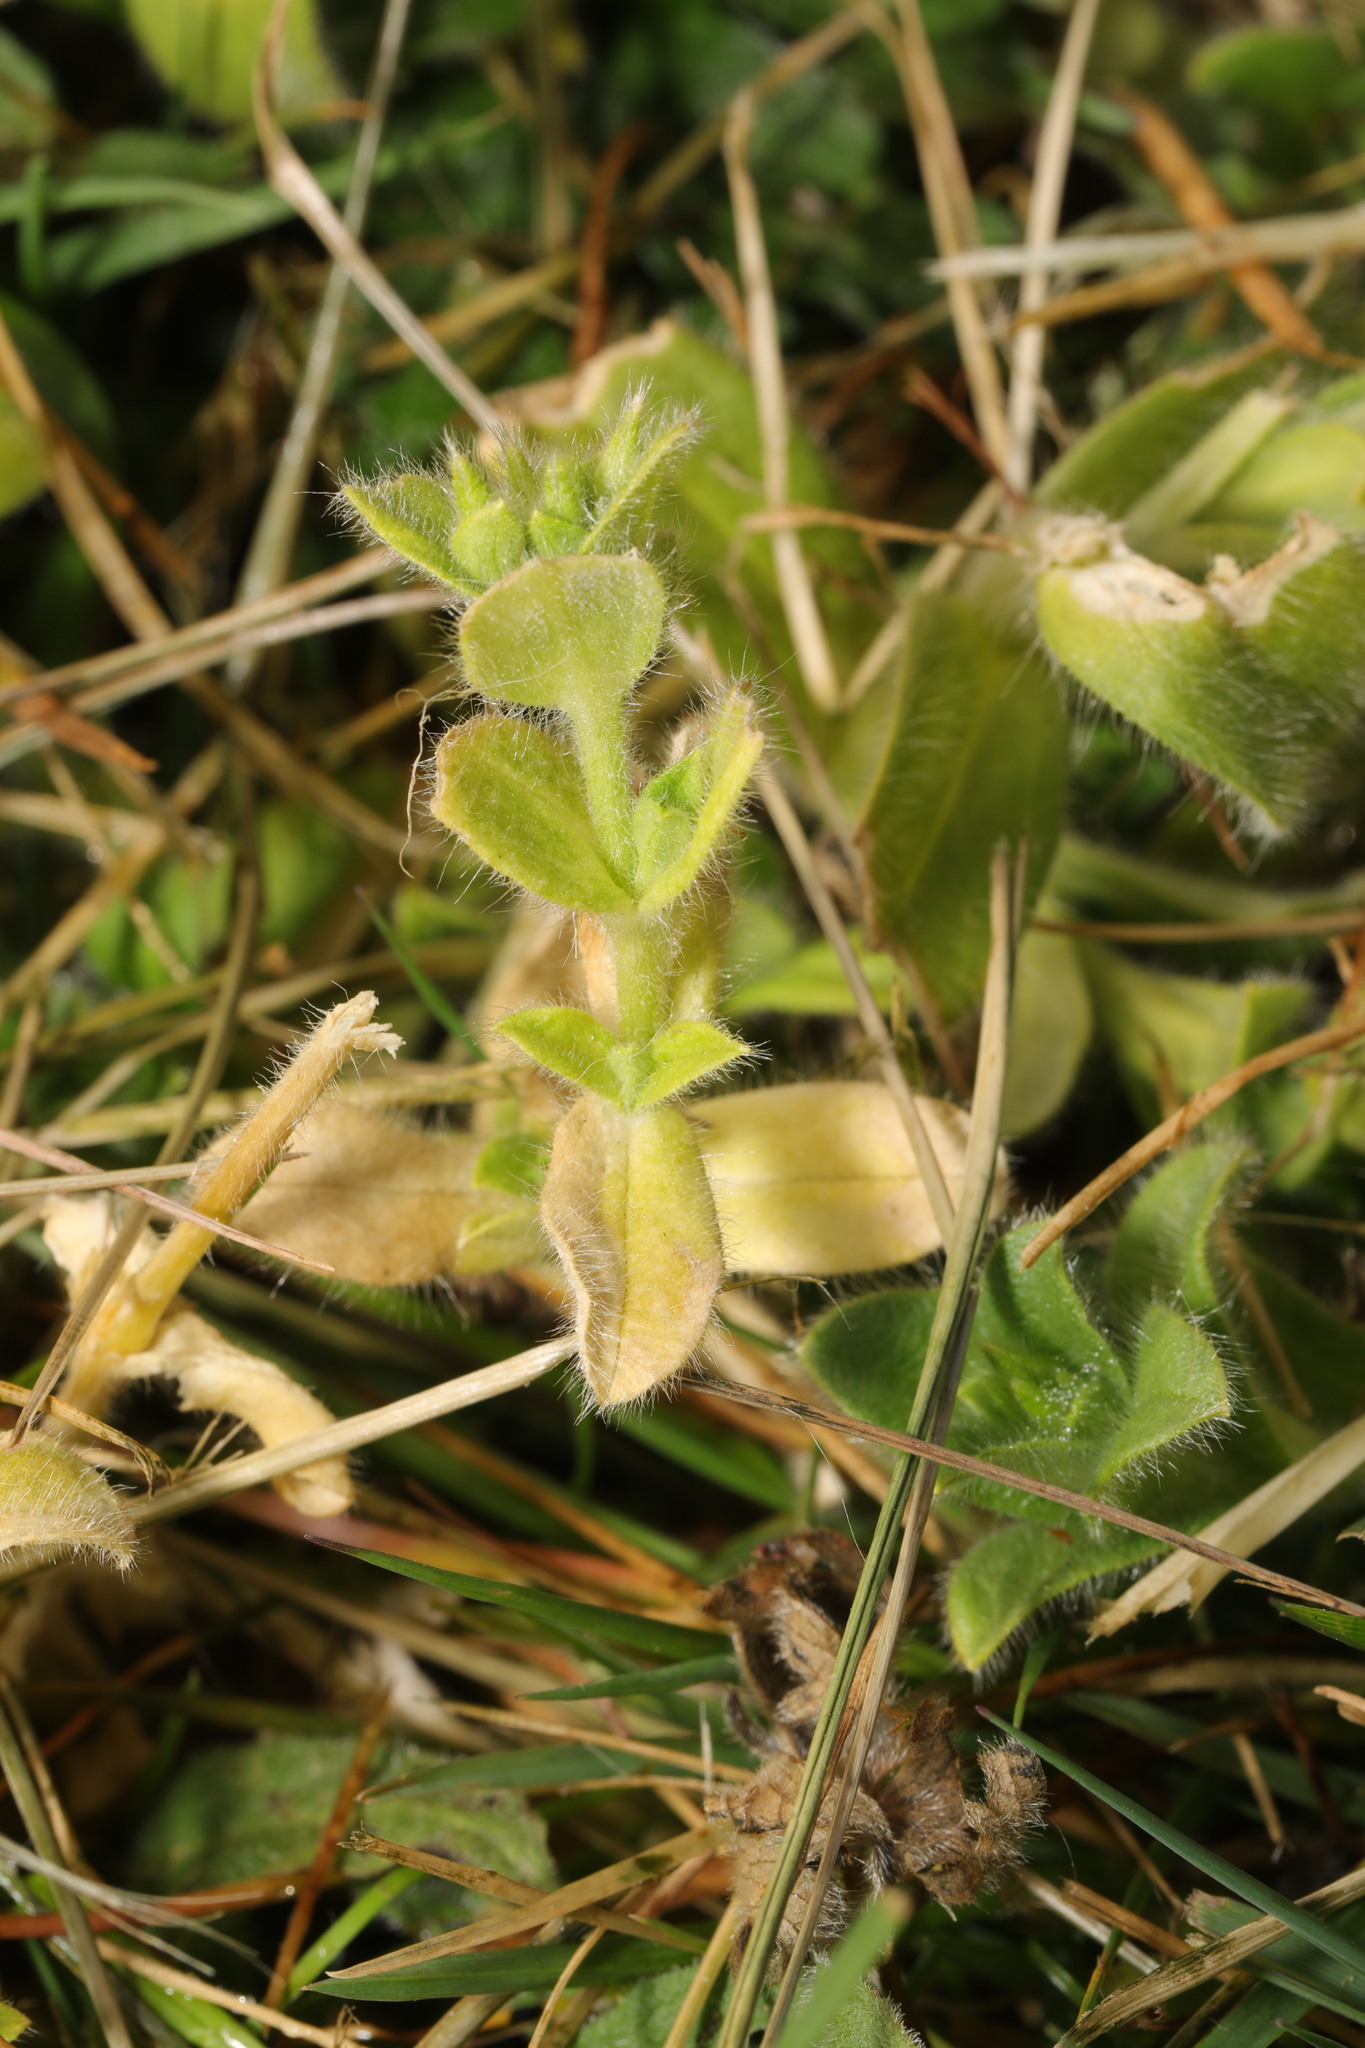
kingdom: Plantae
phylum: Tracheophyta
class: Magnoliopsida
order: Caryophyllales
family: Caryophyllaceae
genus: Cerastium
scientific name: Cerastium glomeratum
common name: Sticky chickweed
